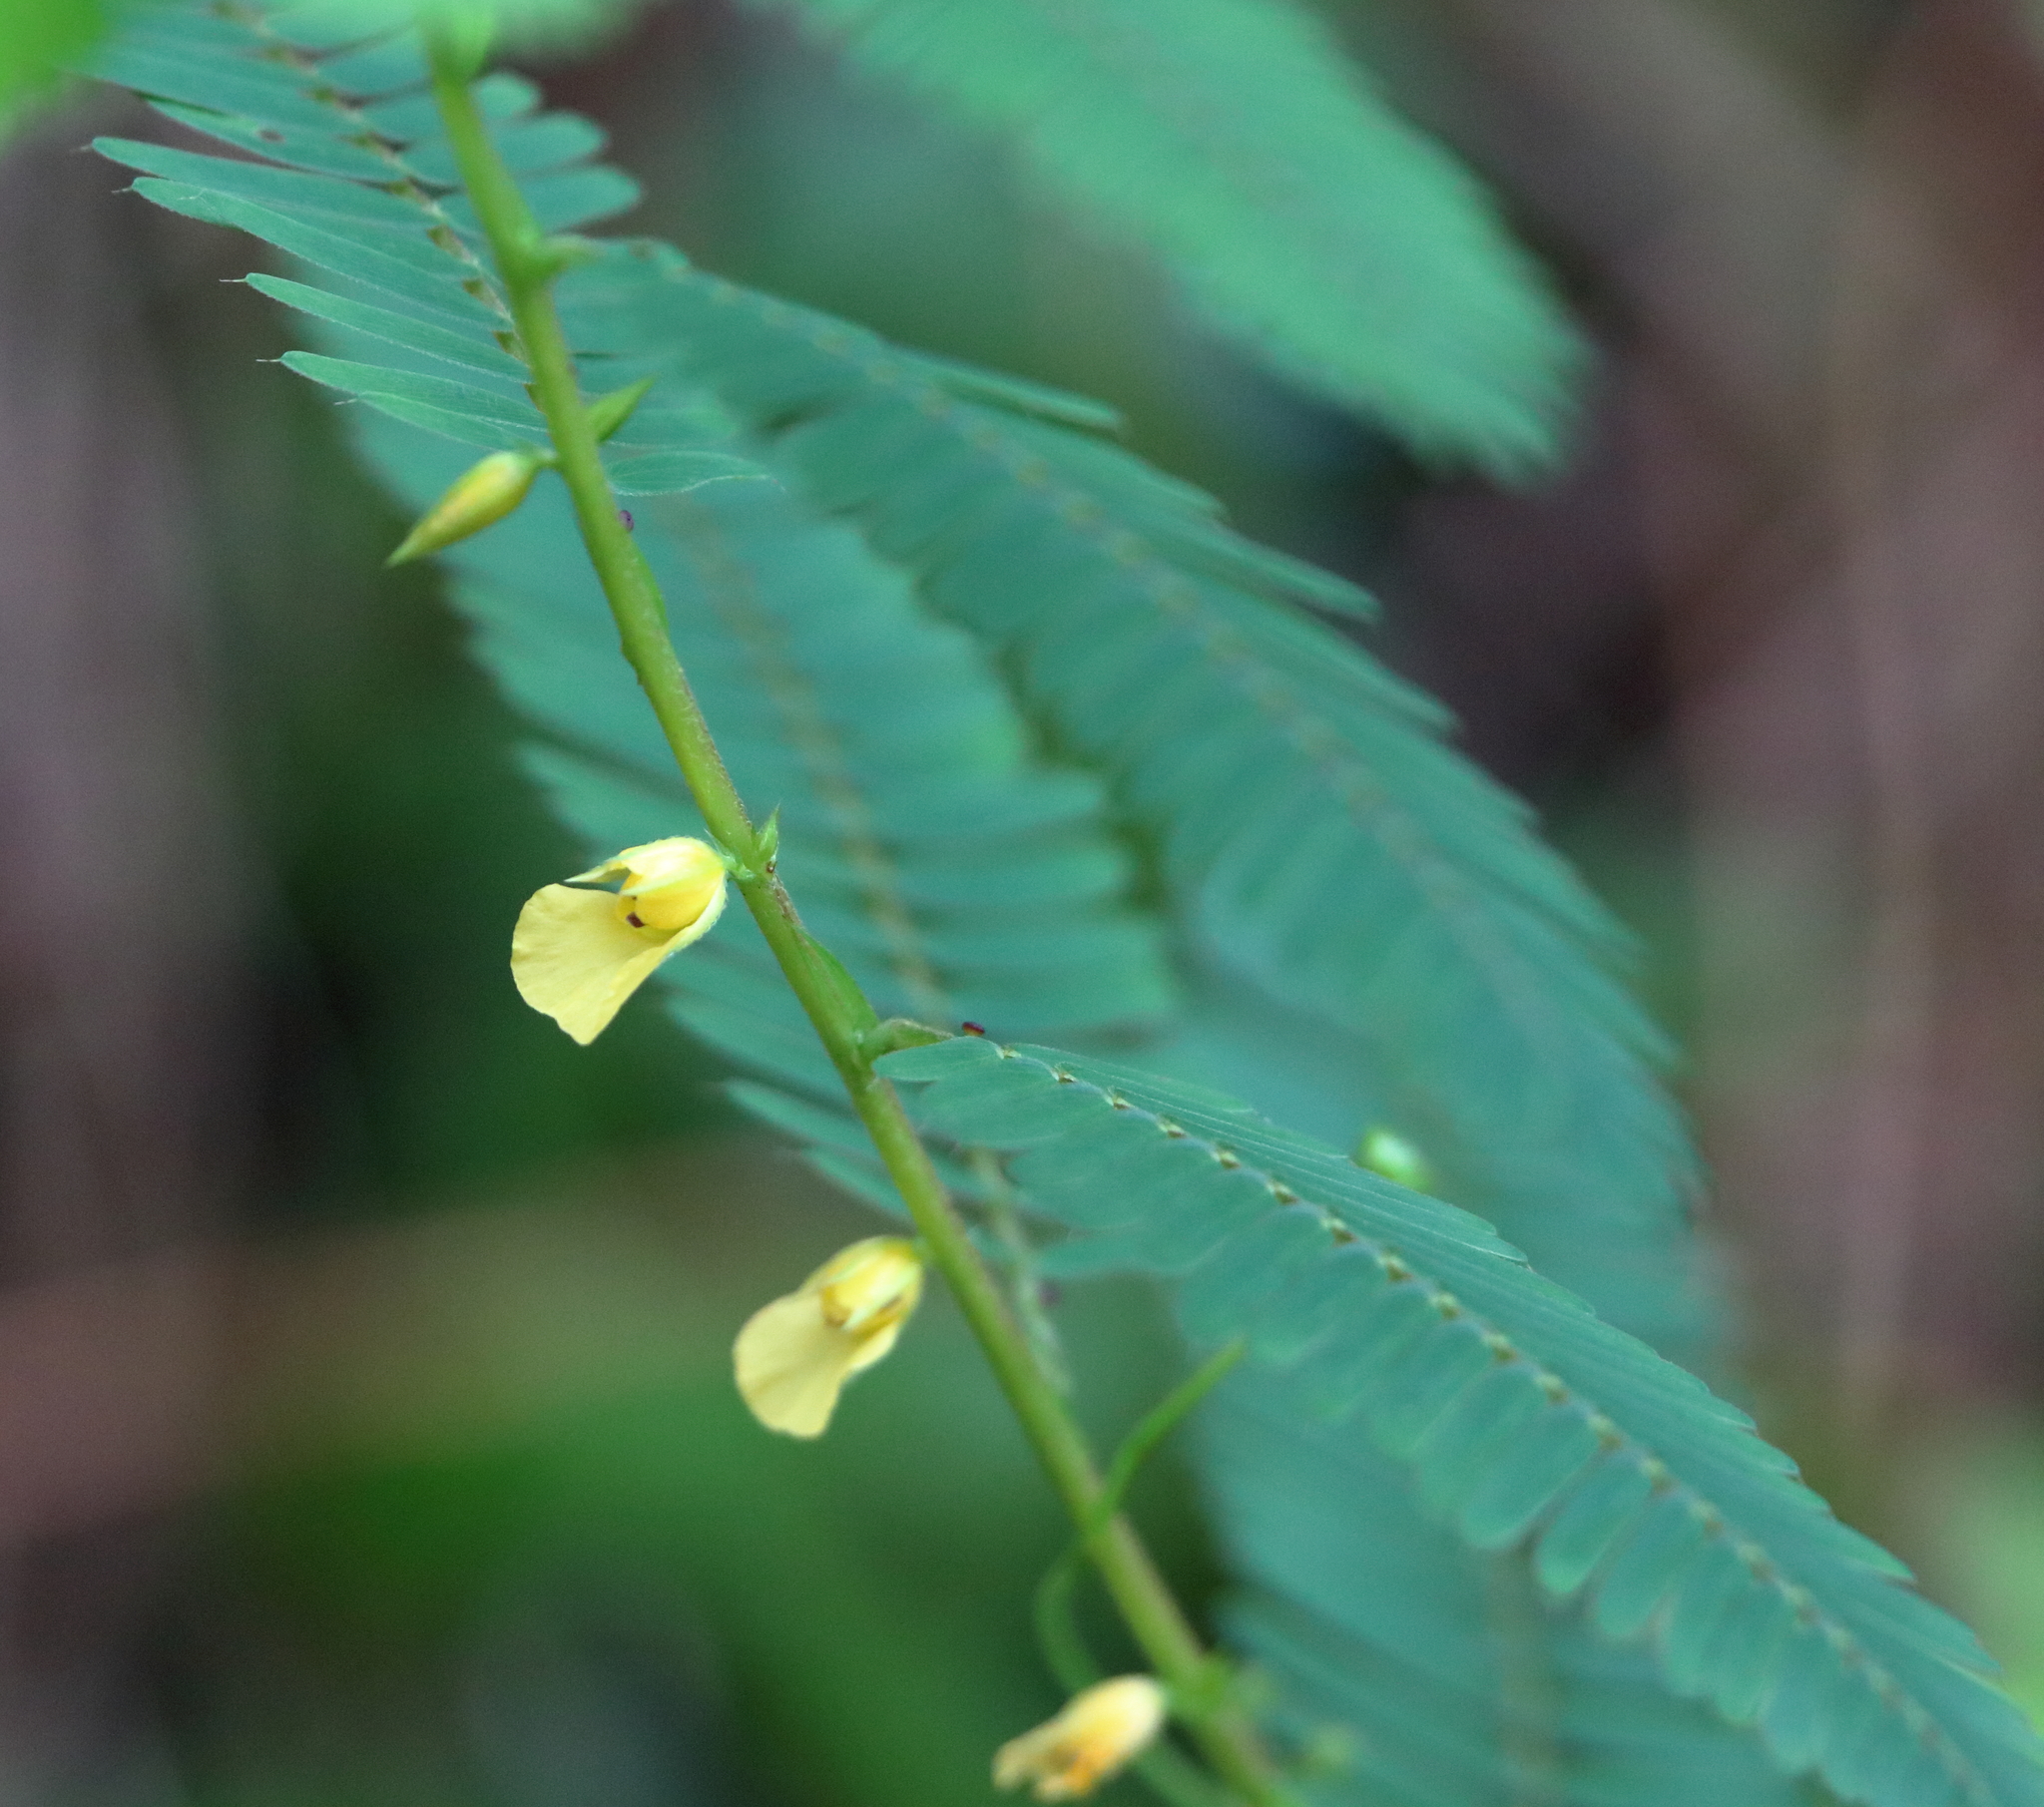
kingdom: Plantae
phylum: Tracheophyta
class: Magnoliopsida
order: Fabales
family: Fabaceae
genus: Chamaecrista
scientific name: Chamaecrista nictitans
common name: Sensitive cassia
